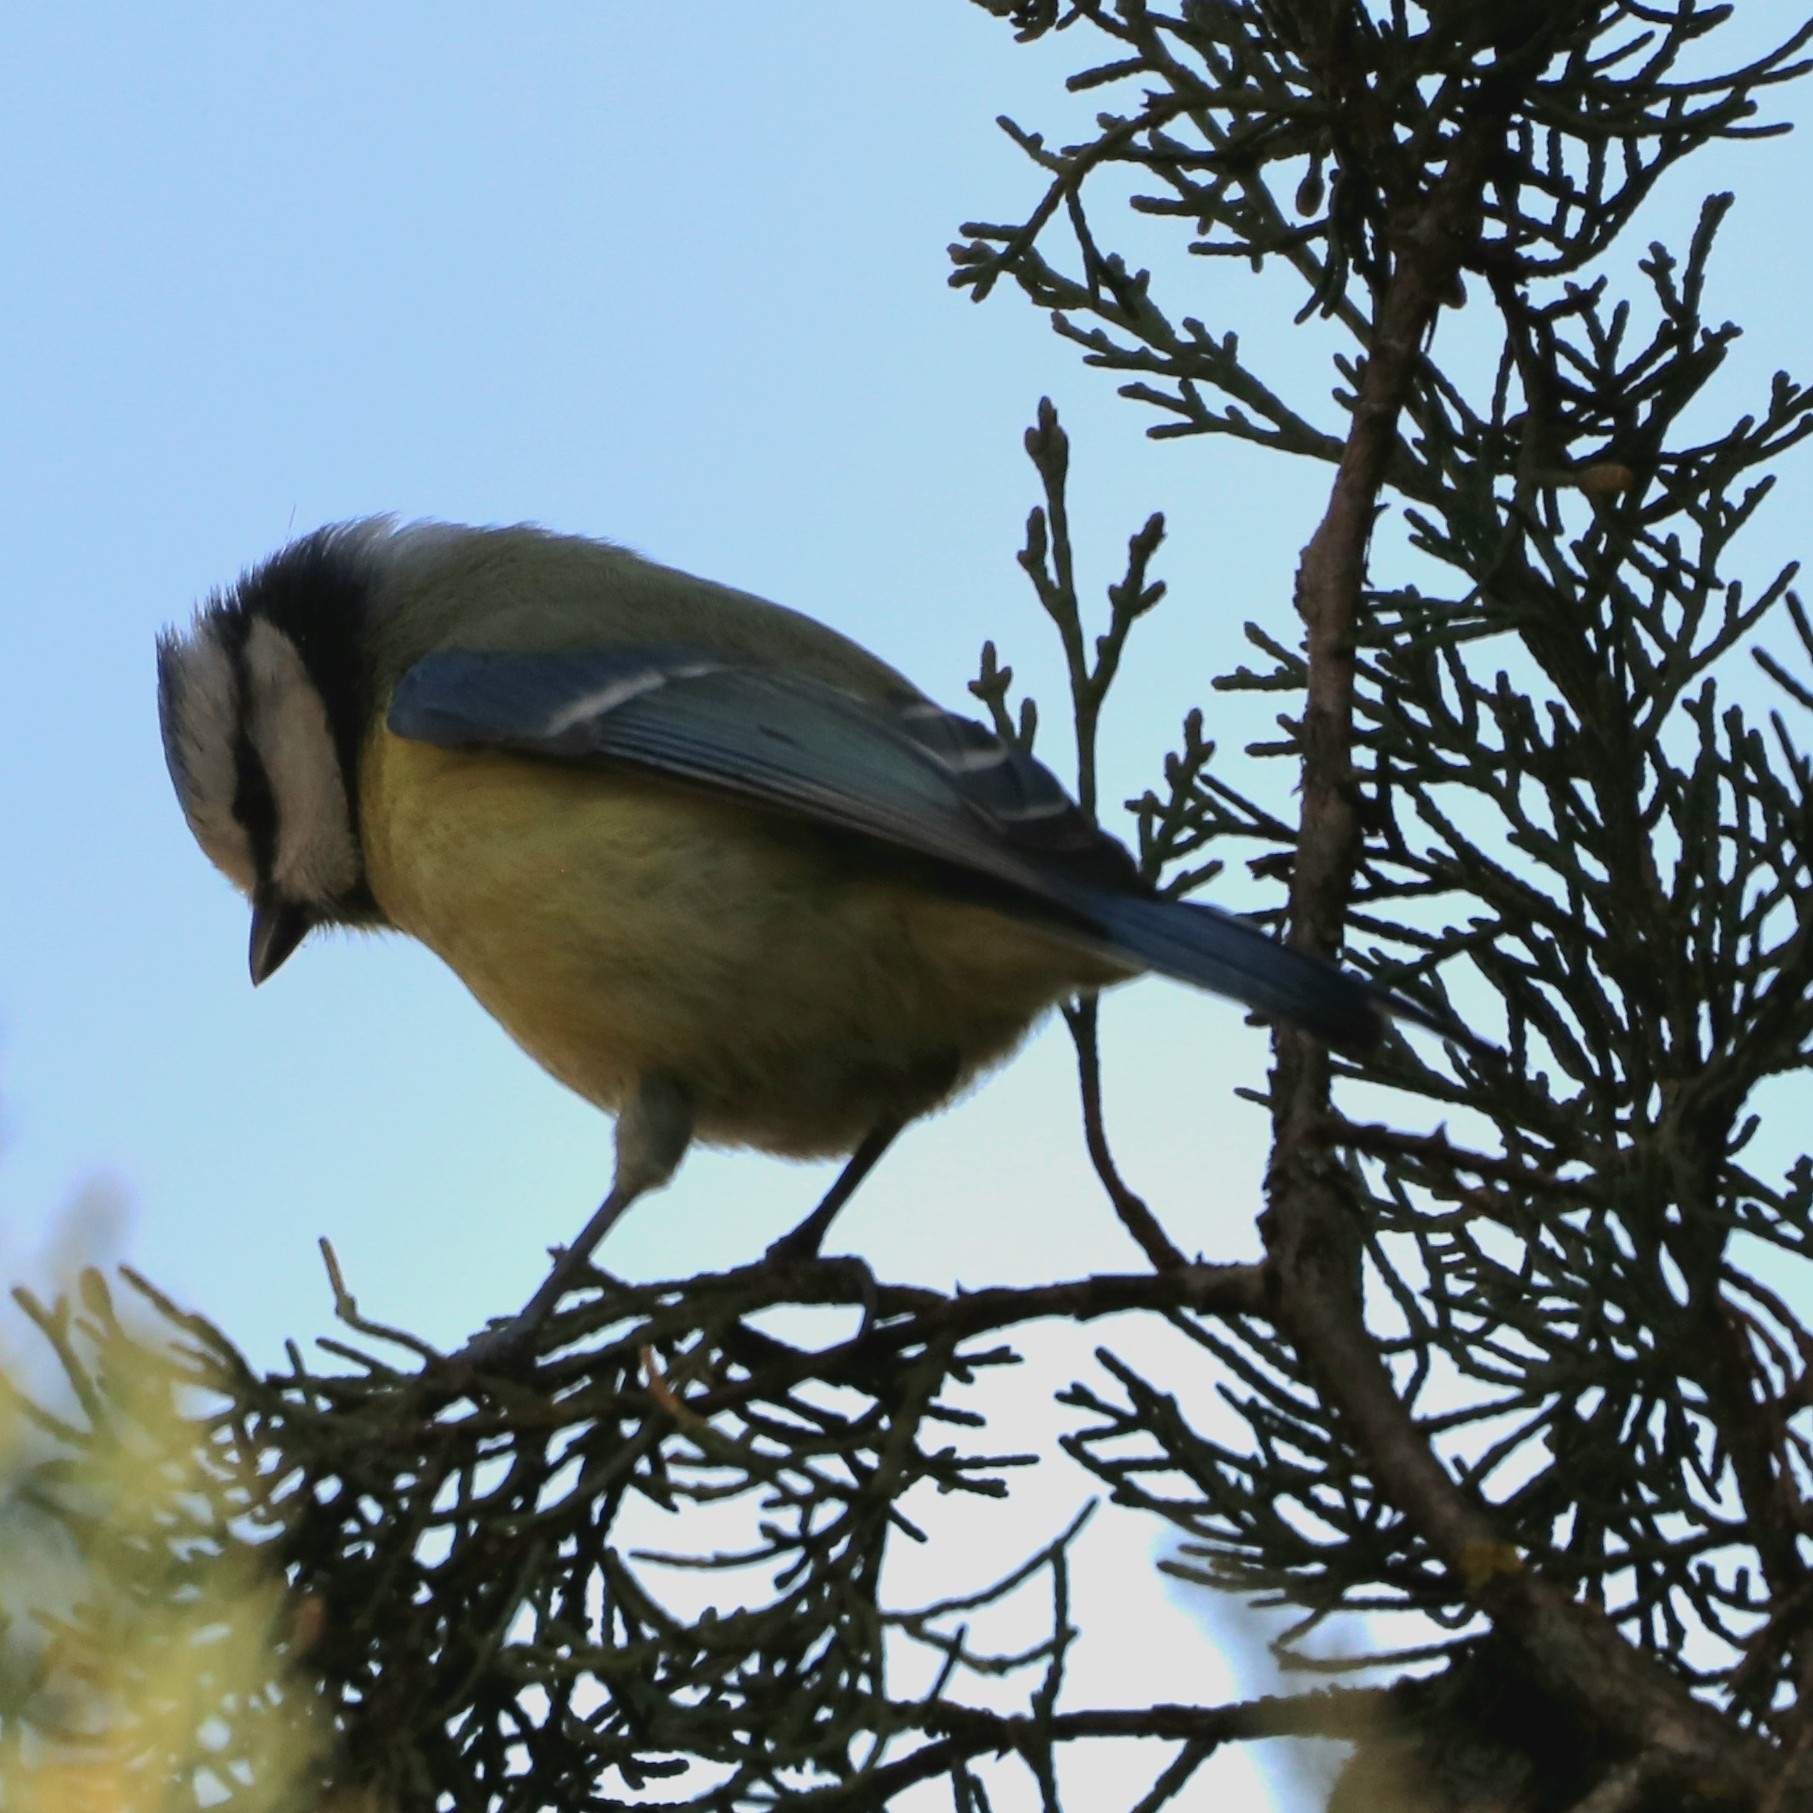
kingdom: Animalia
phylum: Chordata
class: Aves
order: Passeriformes
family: Paridae
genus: Cyanistes
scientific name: Cyanistes caeruleus
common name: Eurasian blue tit
